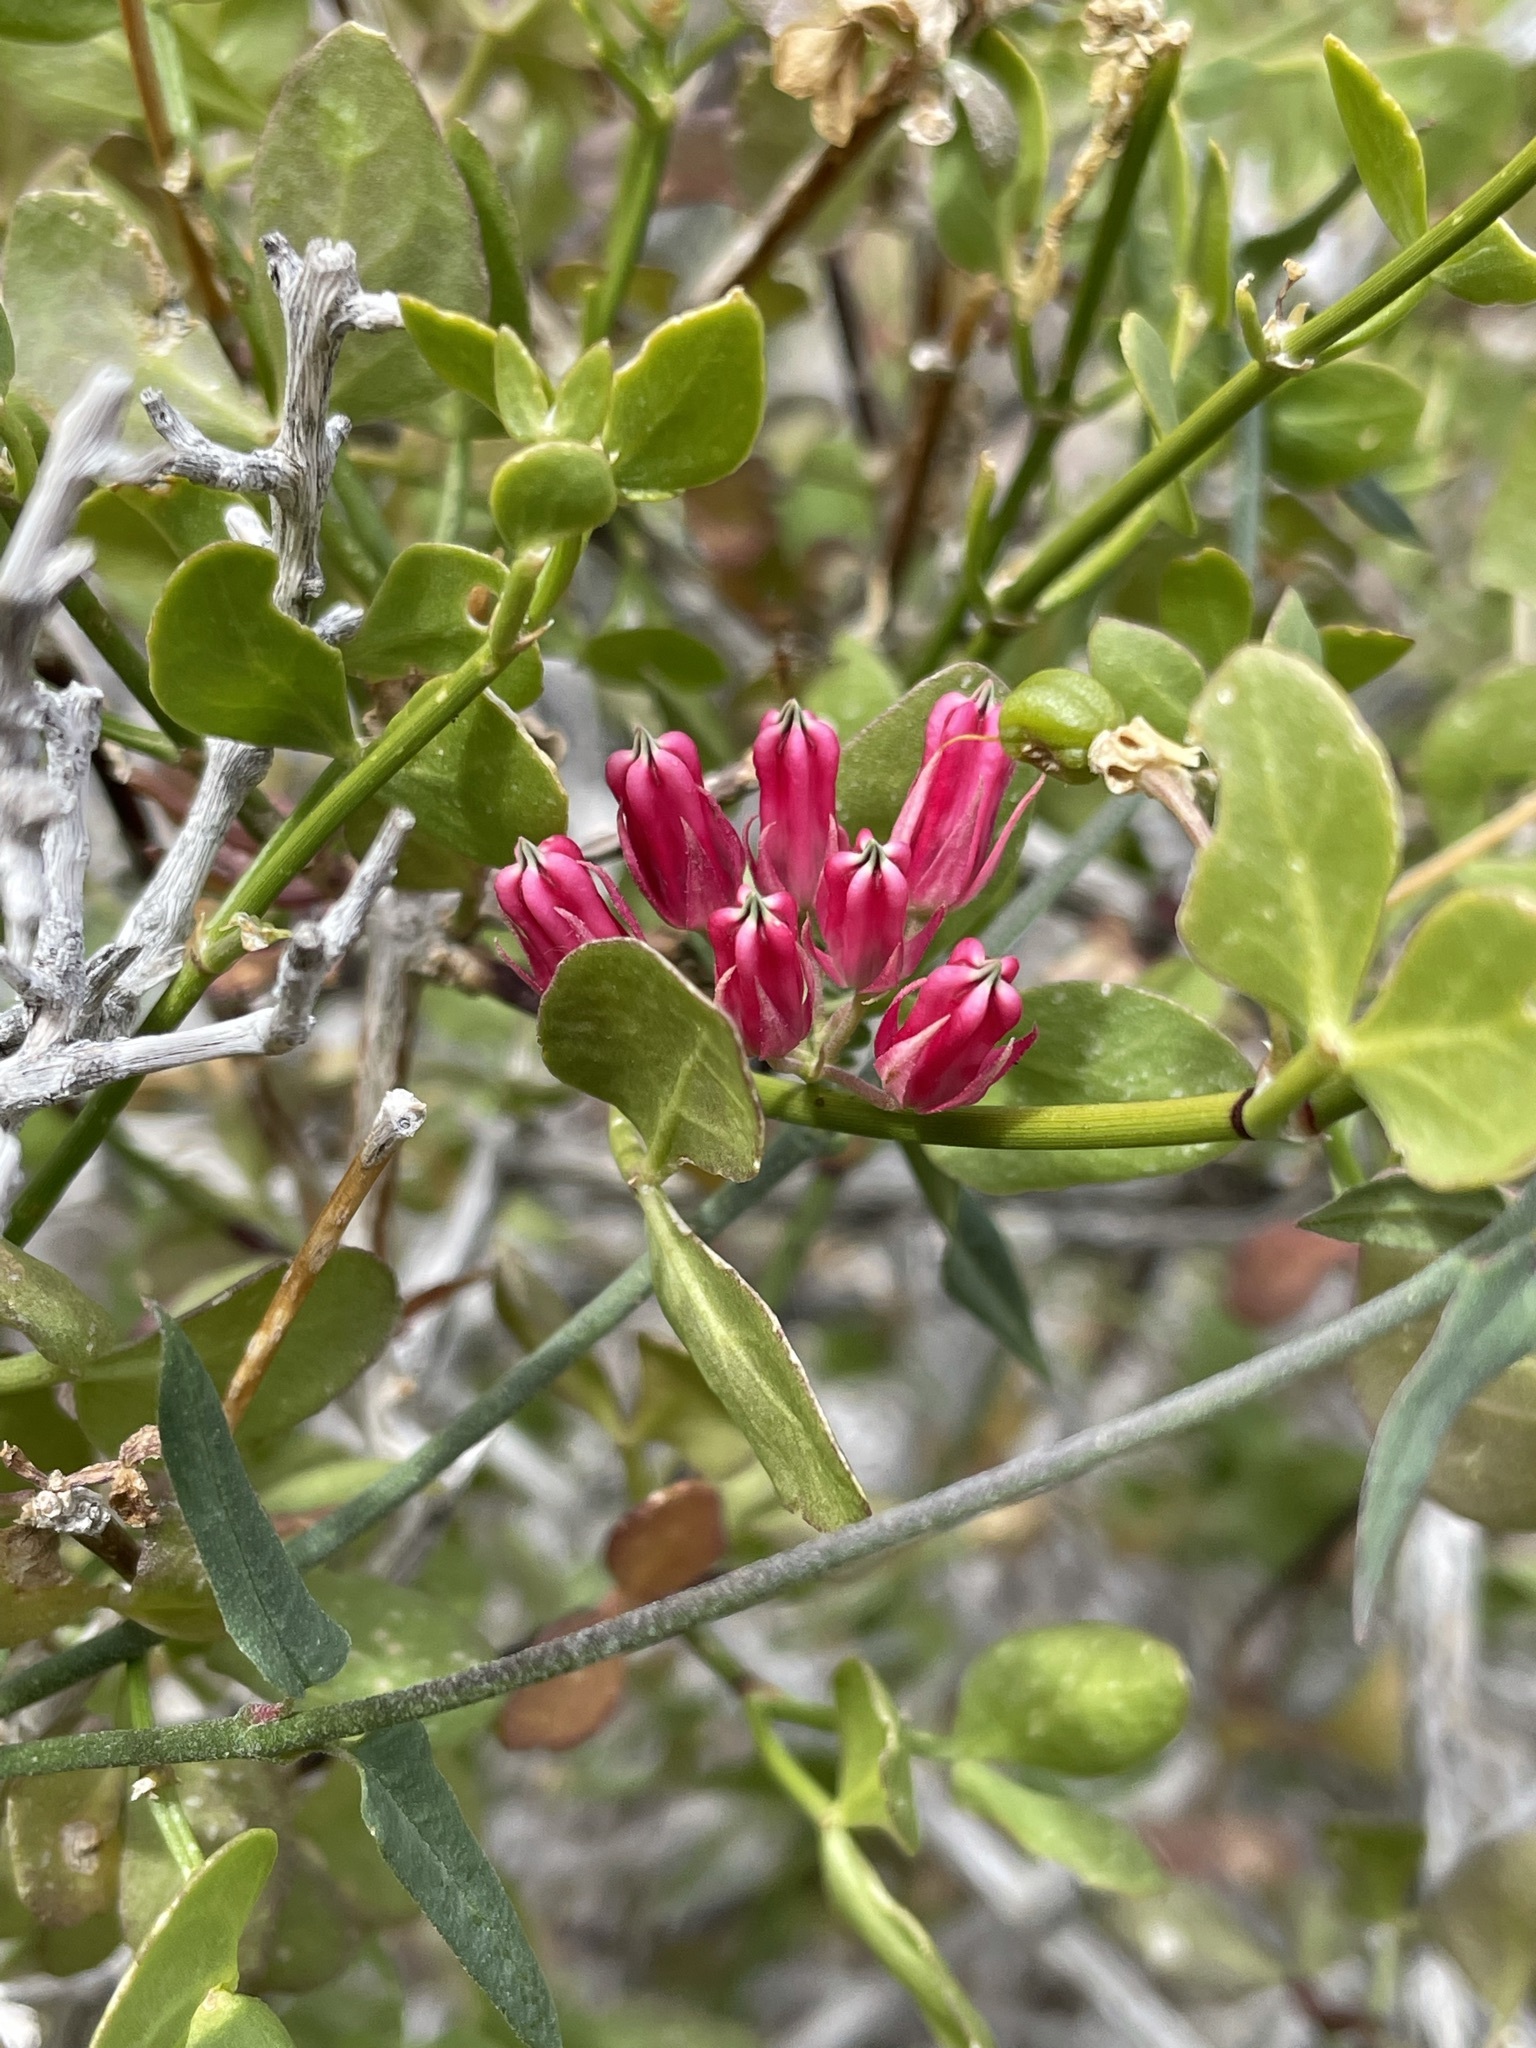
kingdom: Plantae
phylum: Tracheophyta
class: Magnoliopsida
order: Gentianales
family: Apocynaceae
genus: Microloma
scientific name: Microloma sagittatum
